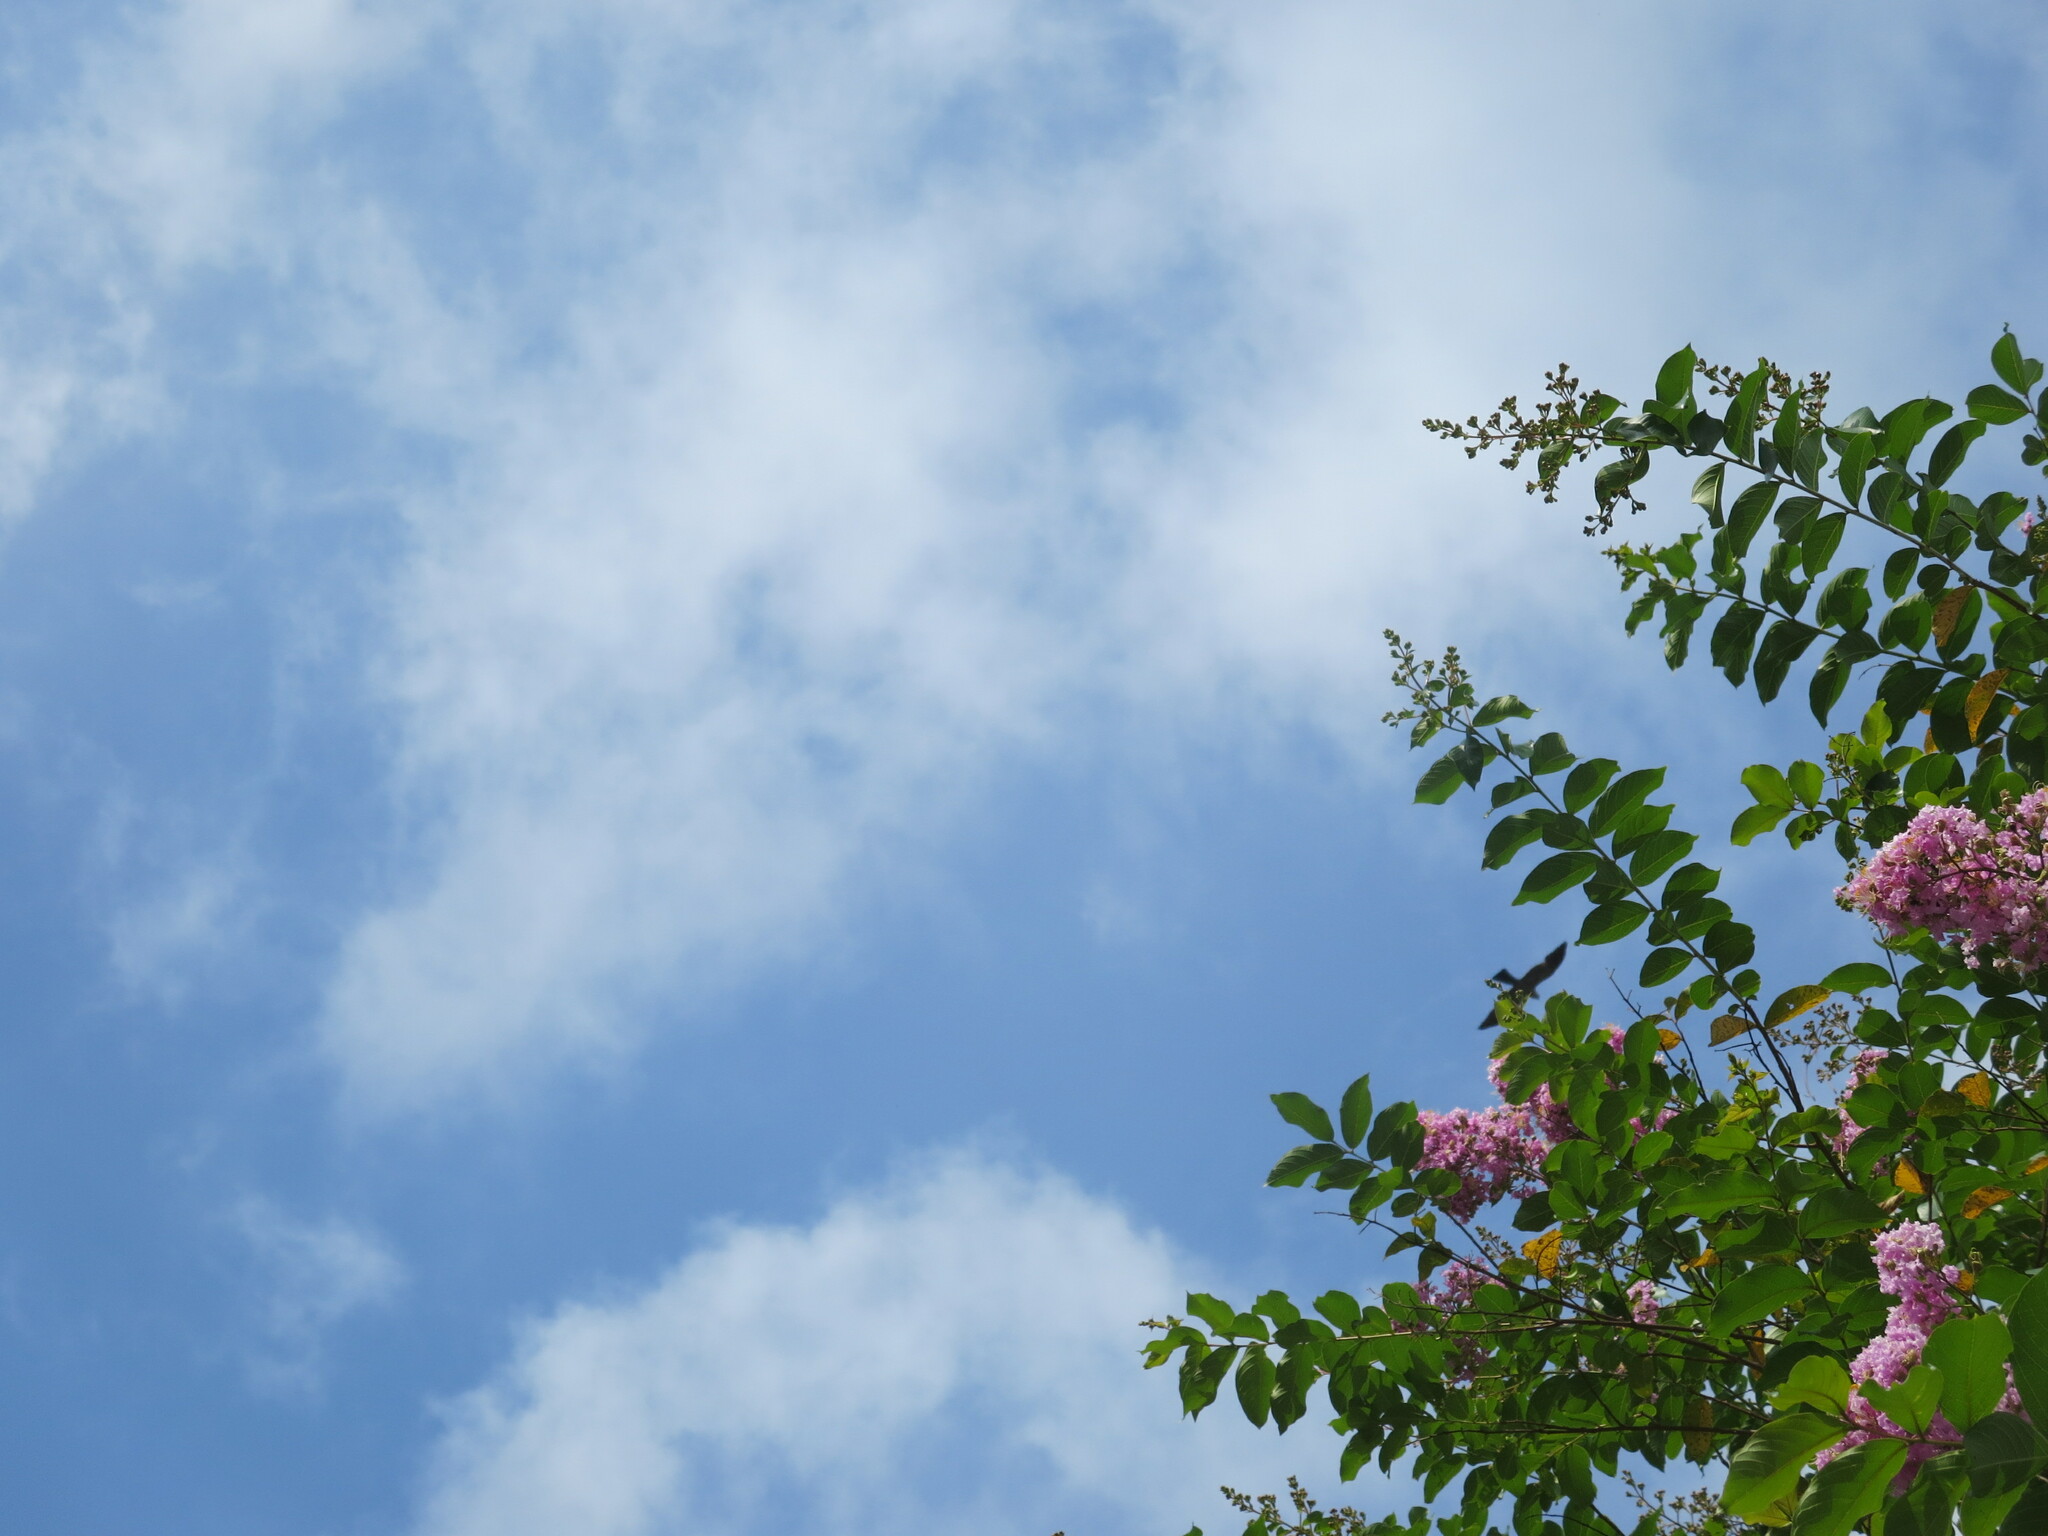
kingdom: Animalia
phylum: Chordata
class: Aves
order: Accipitriformes
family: Accipitridae
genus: Ictinia
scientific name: Ictinia mississippiensis
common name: Mississippi kite
